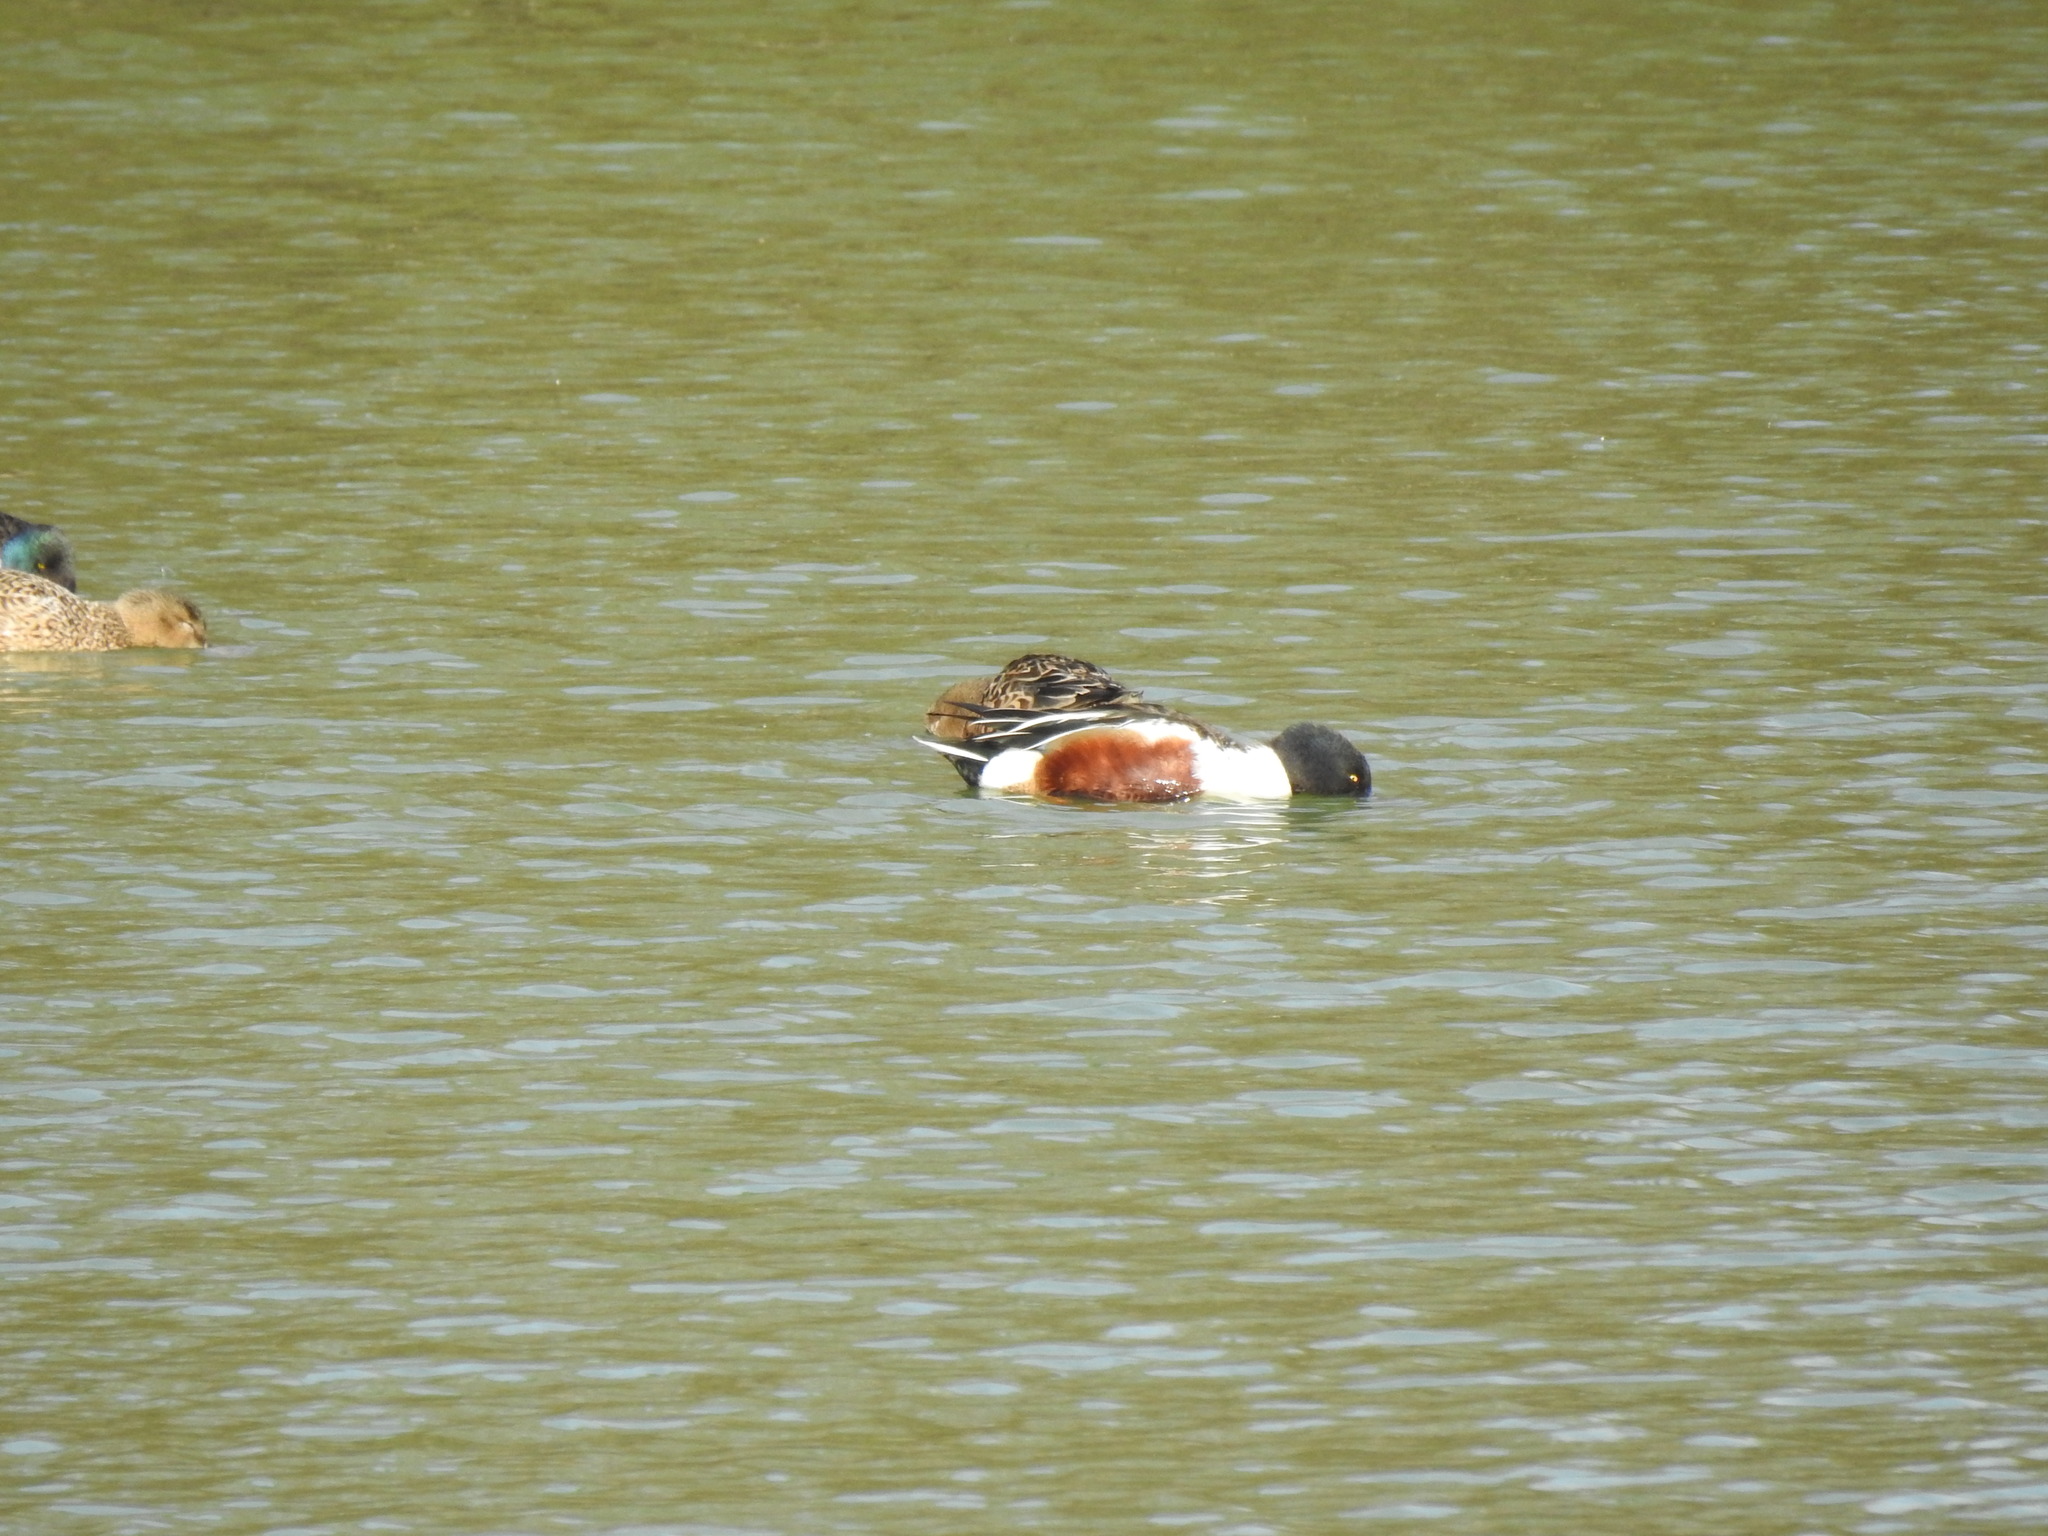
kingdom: Animalia
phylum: Chordata
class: Aves
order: Anseriformes
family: Anatidae
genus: Spatula
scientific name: Spatula clypeata
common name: Northern shoveler
